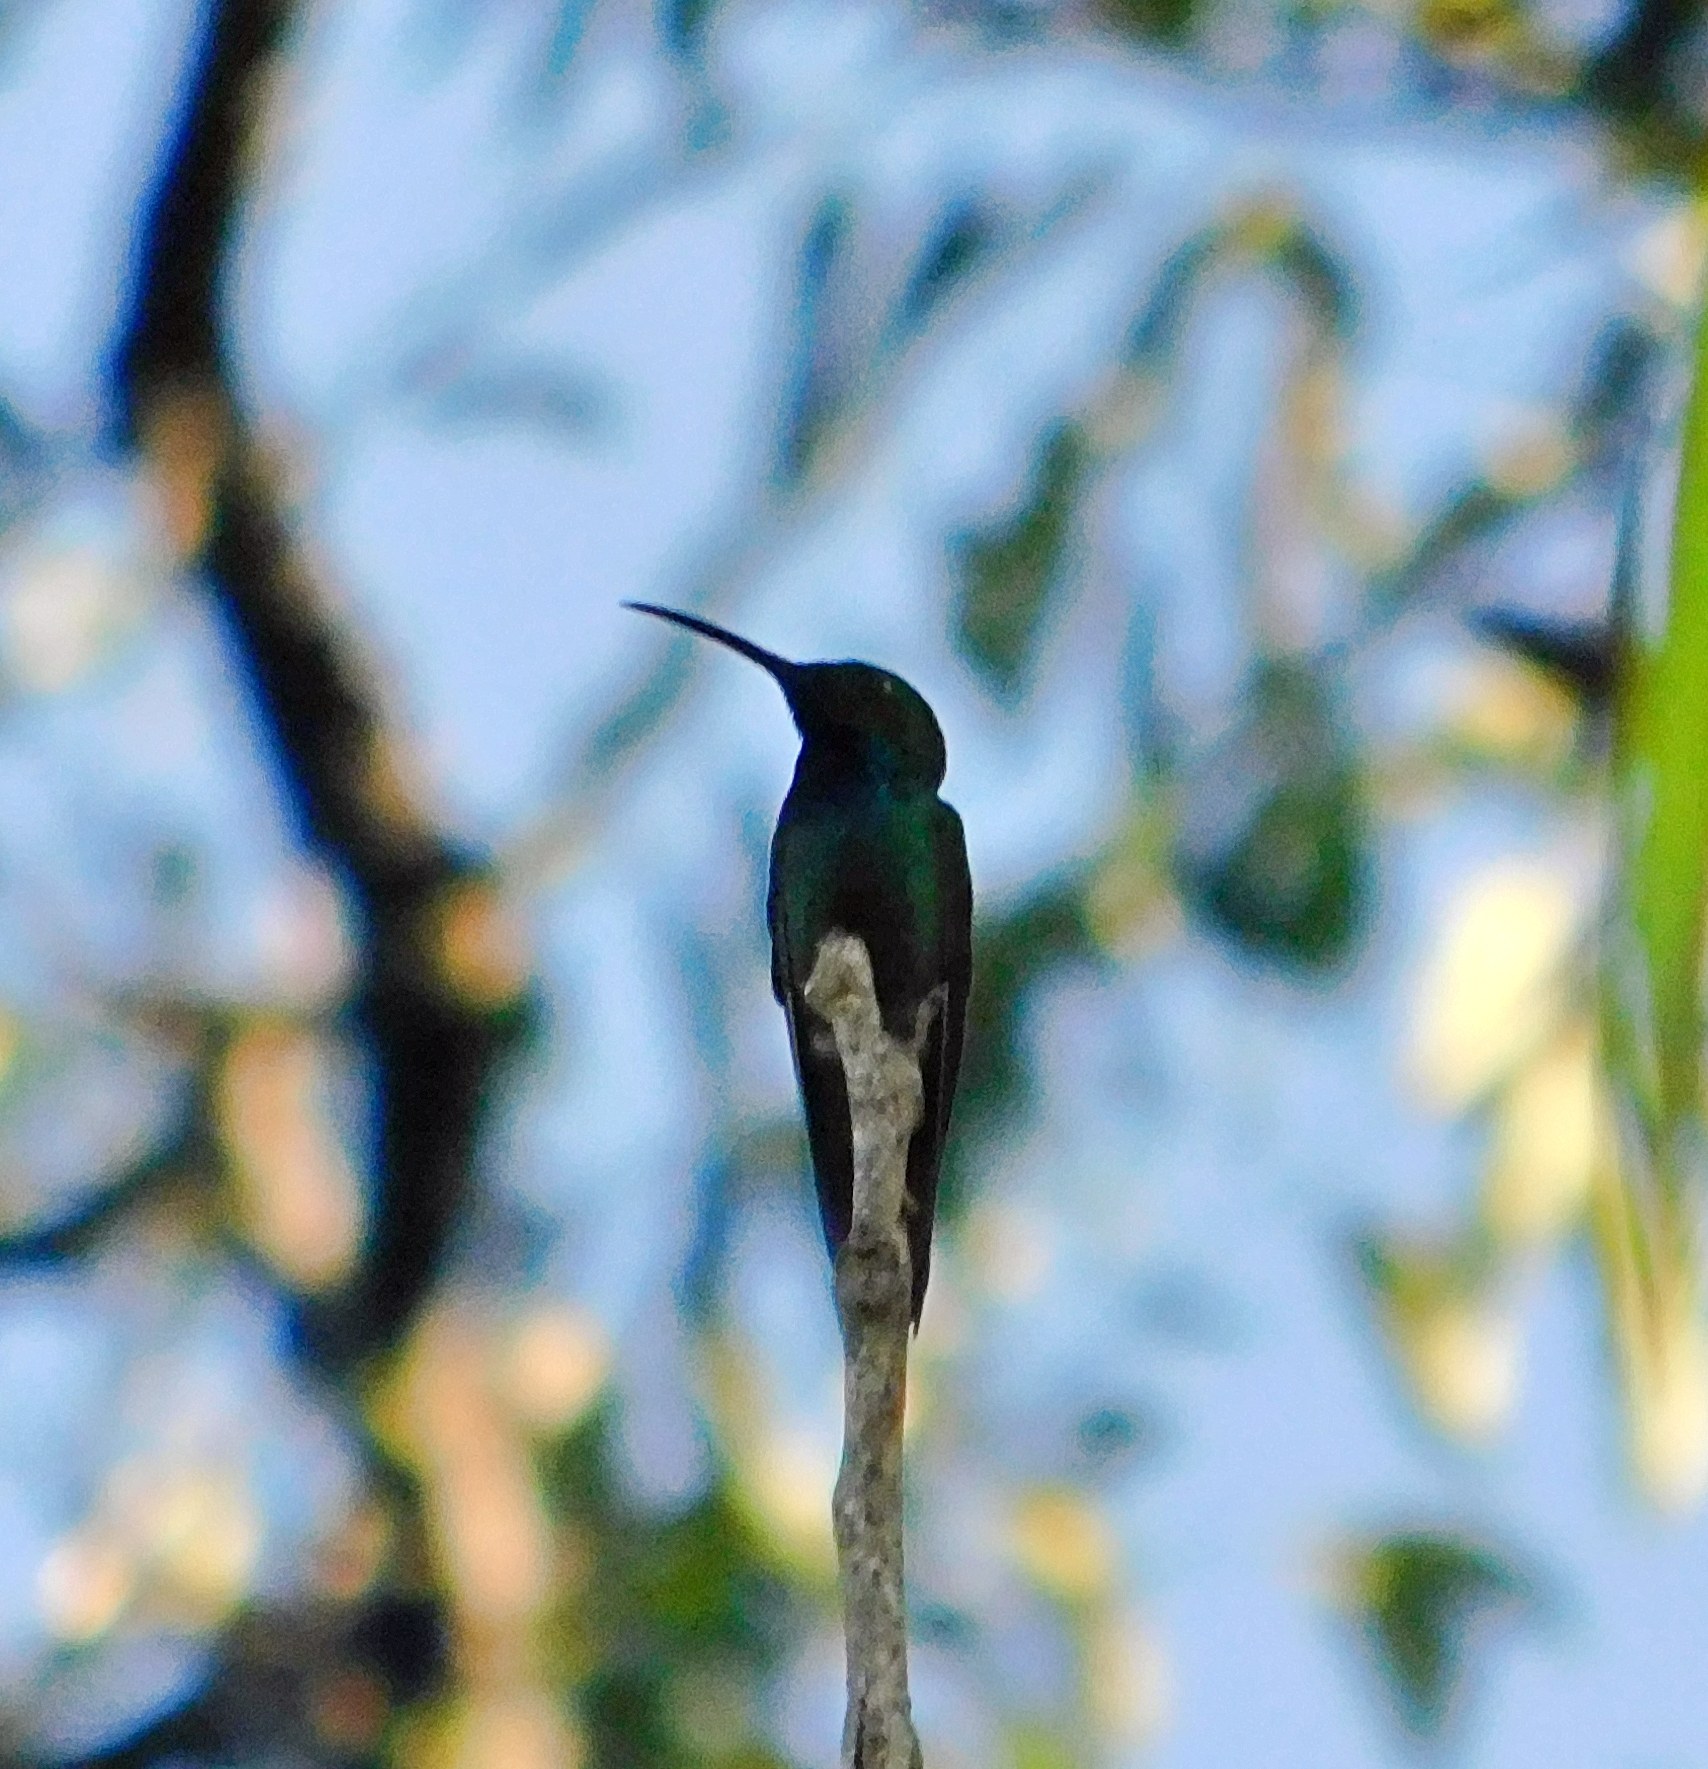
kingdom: Animalia
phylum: Chordata
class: Aves
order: Apodiformes
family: Trochilidae
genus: Anthracothorax
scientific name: Anthracothorax prevostii
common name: Green-breasted mango
